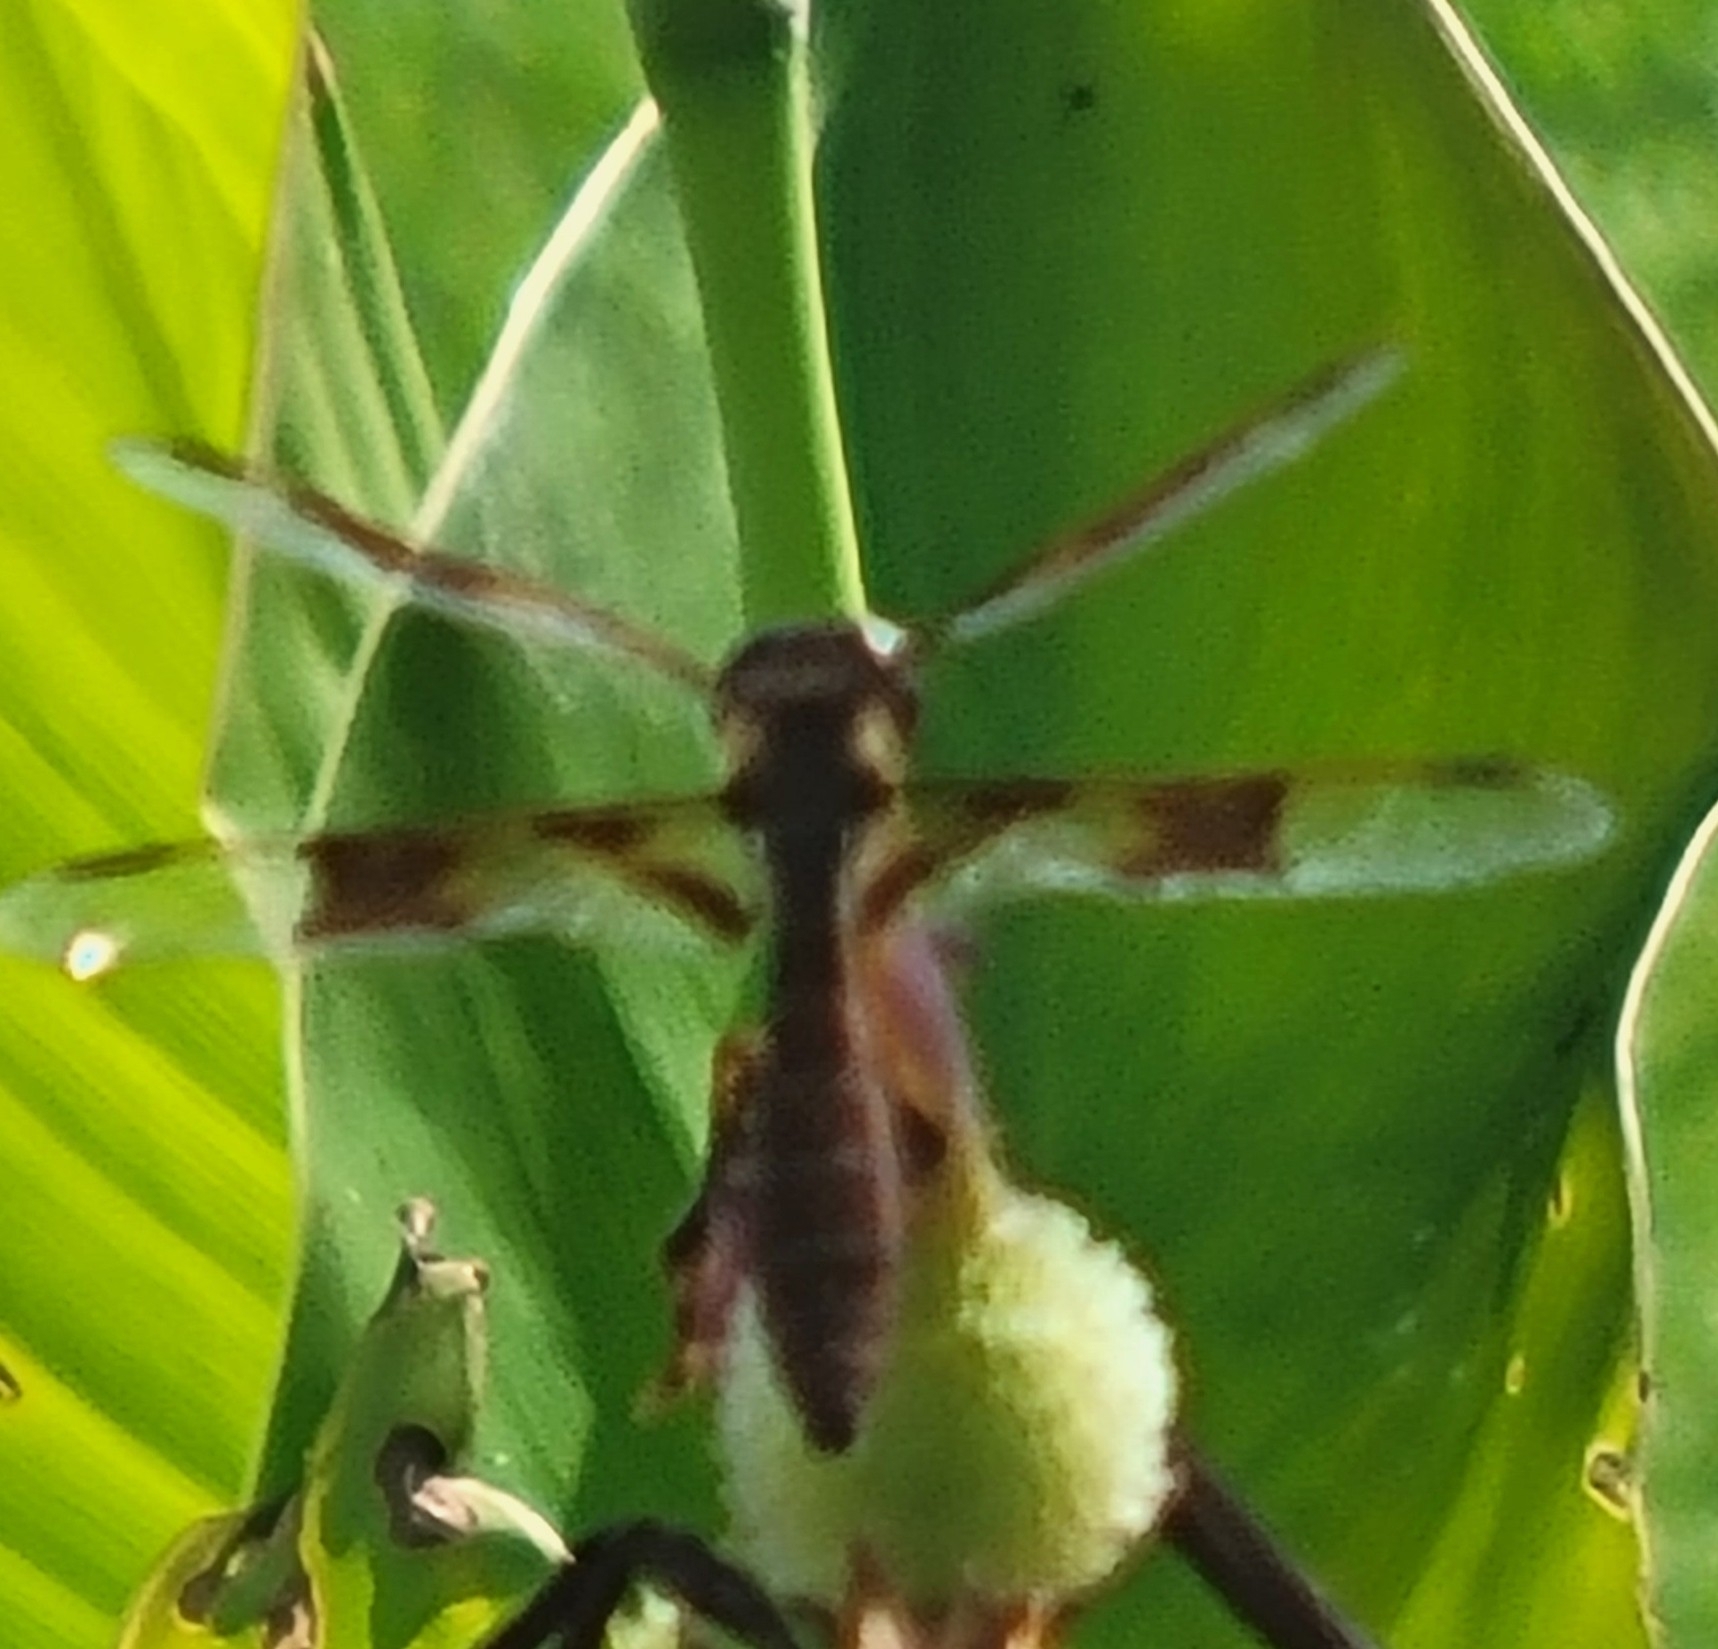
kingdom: Animalia
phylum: Arthropoda
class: Insecta
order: Odonata
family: Libellulidae
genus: Perithemis
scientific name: Perithemis tenera
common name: Eastern amberwing
